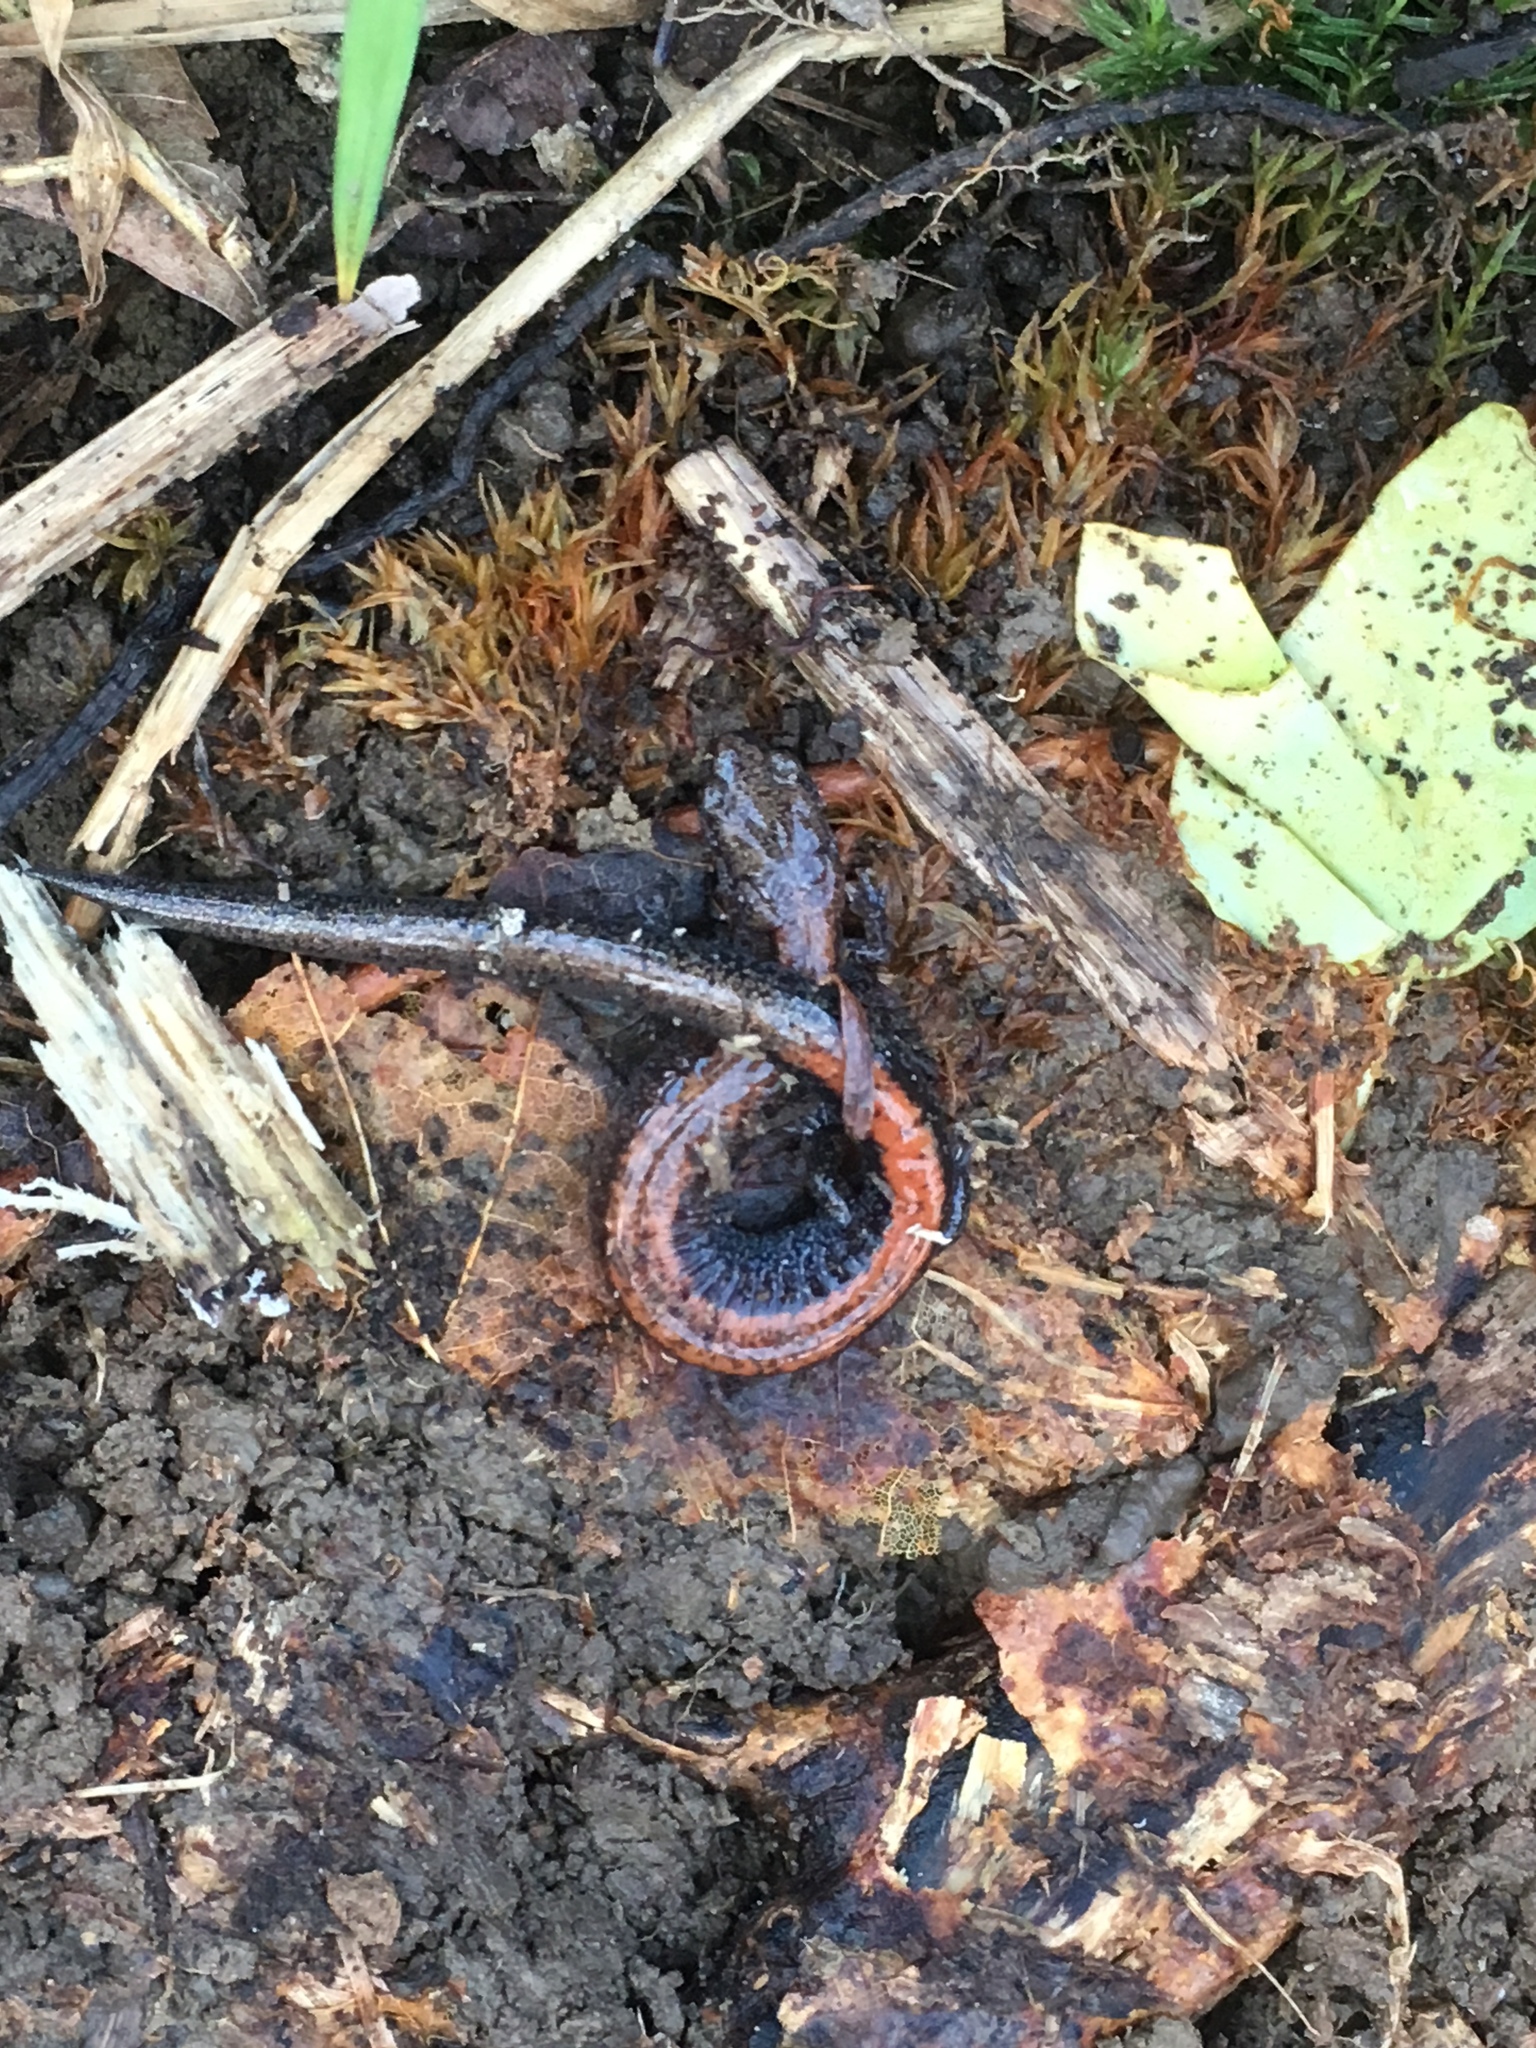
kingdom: Animalia
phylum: Chordata
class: Amphibia
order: Caudata
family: Plethodontidae
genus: Plethodon
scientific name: Plethodon cinereus
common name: Redback salamander
